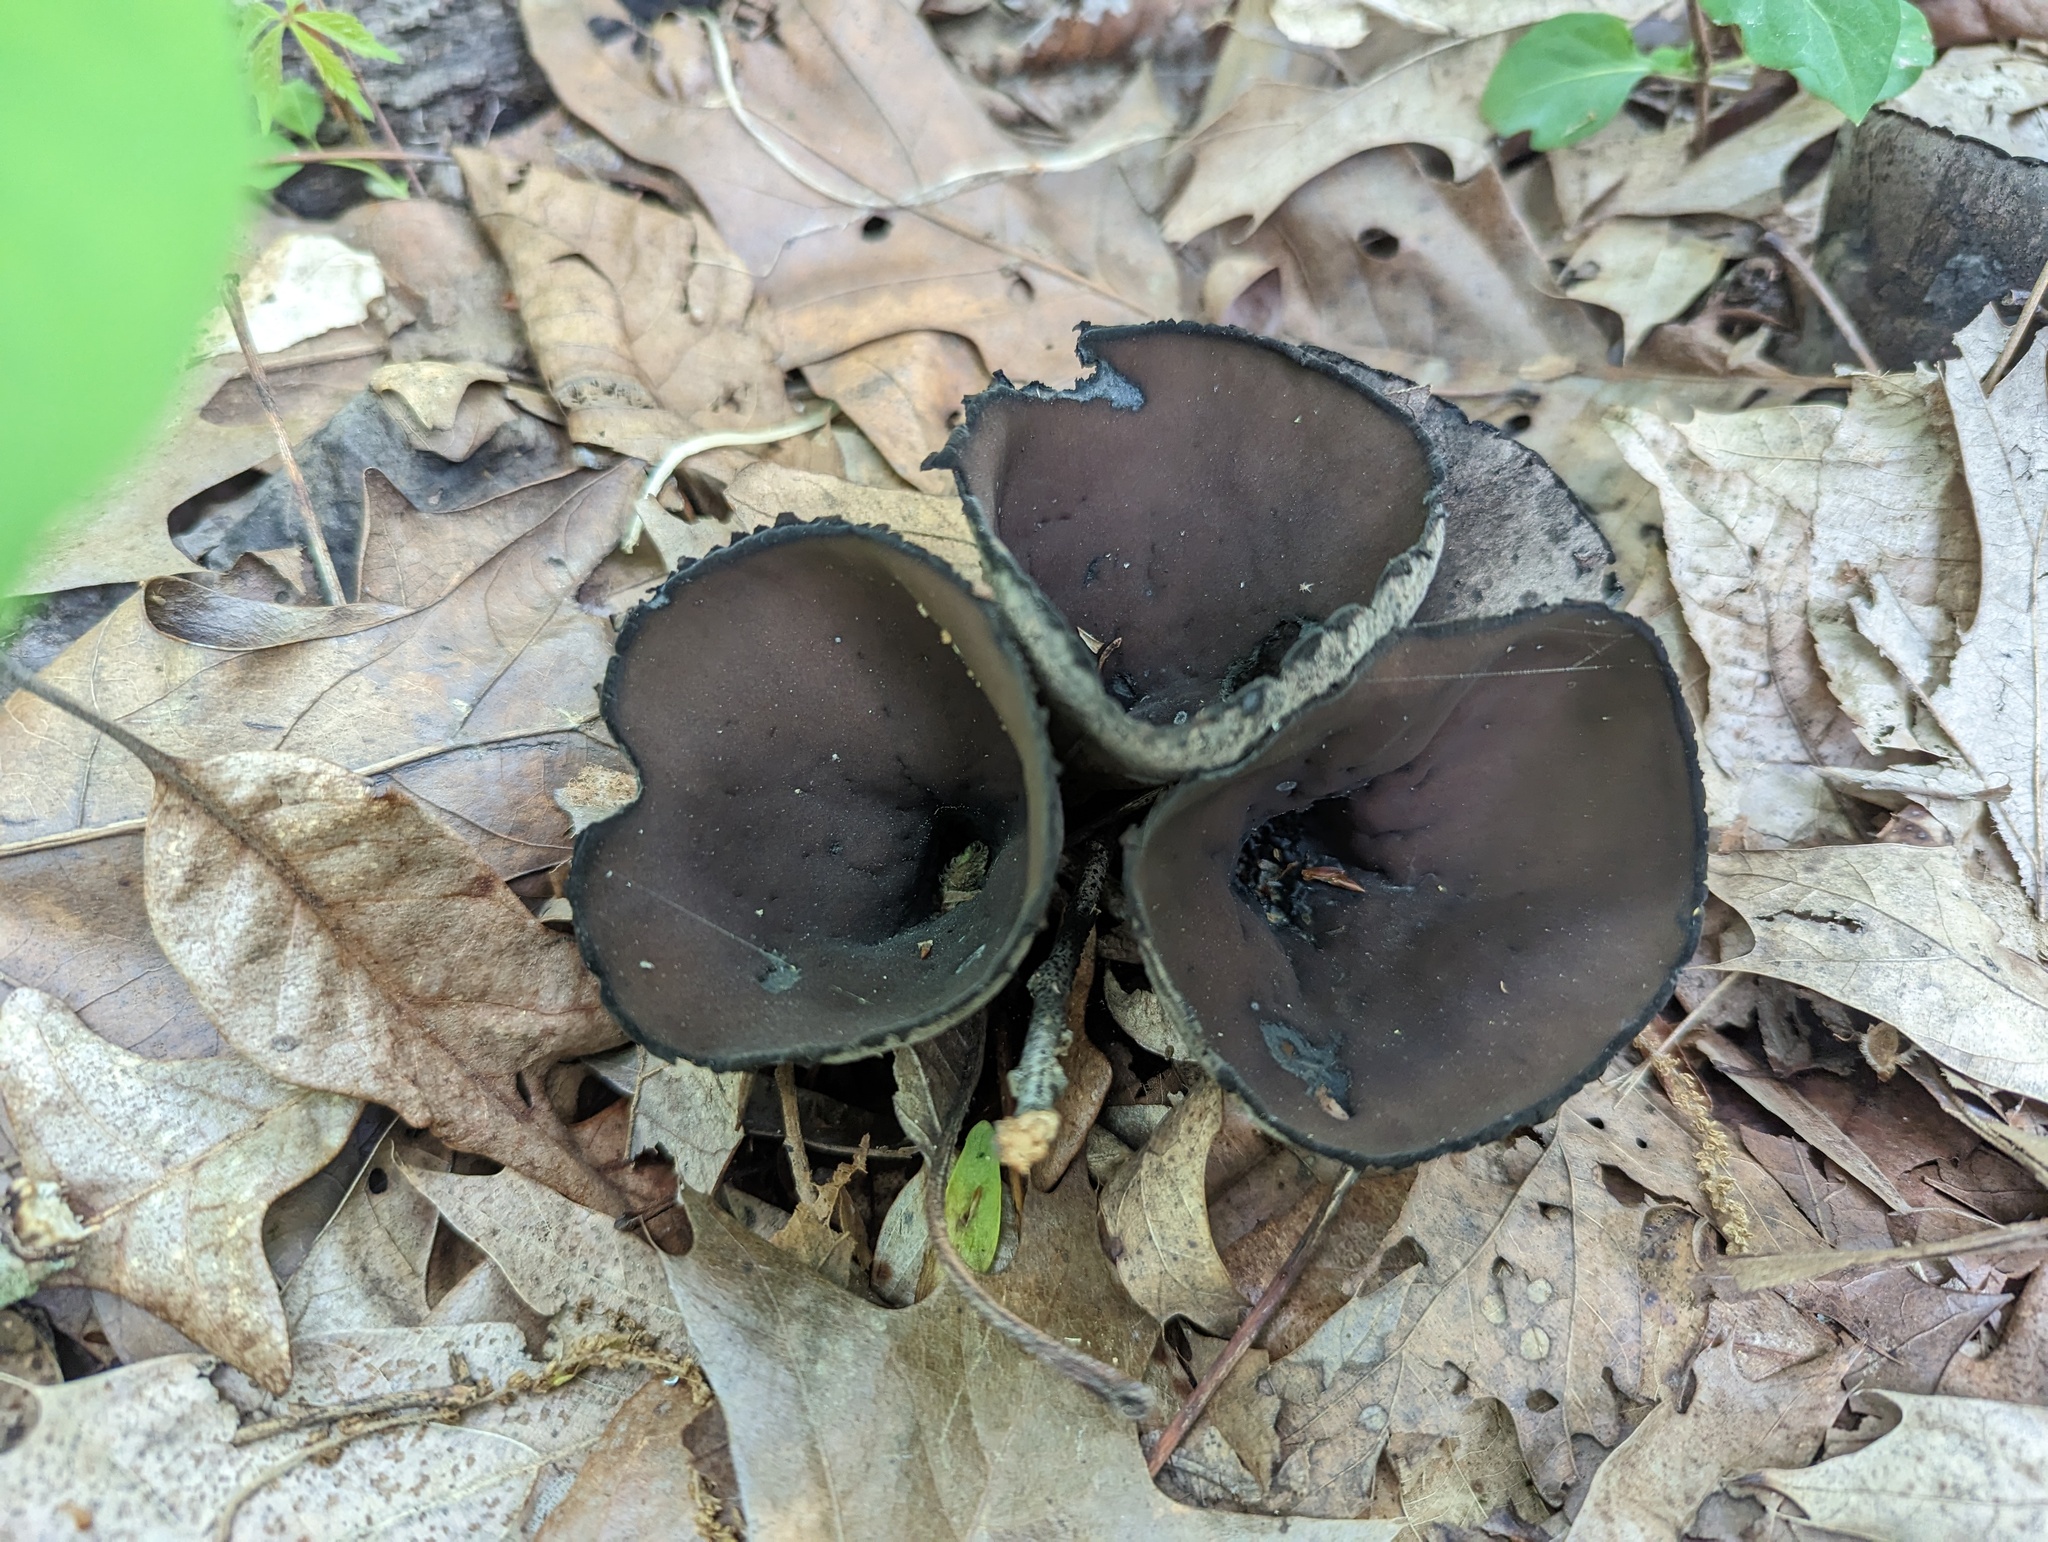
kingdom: Fungi
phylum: Ascomycota
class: Pezizomycetes
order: Pezizales
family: Sarcosomataceae
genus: Urnula
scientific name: Urnula craterium
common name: Devil's urn
